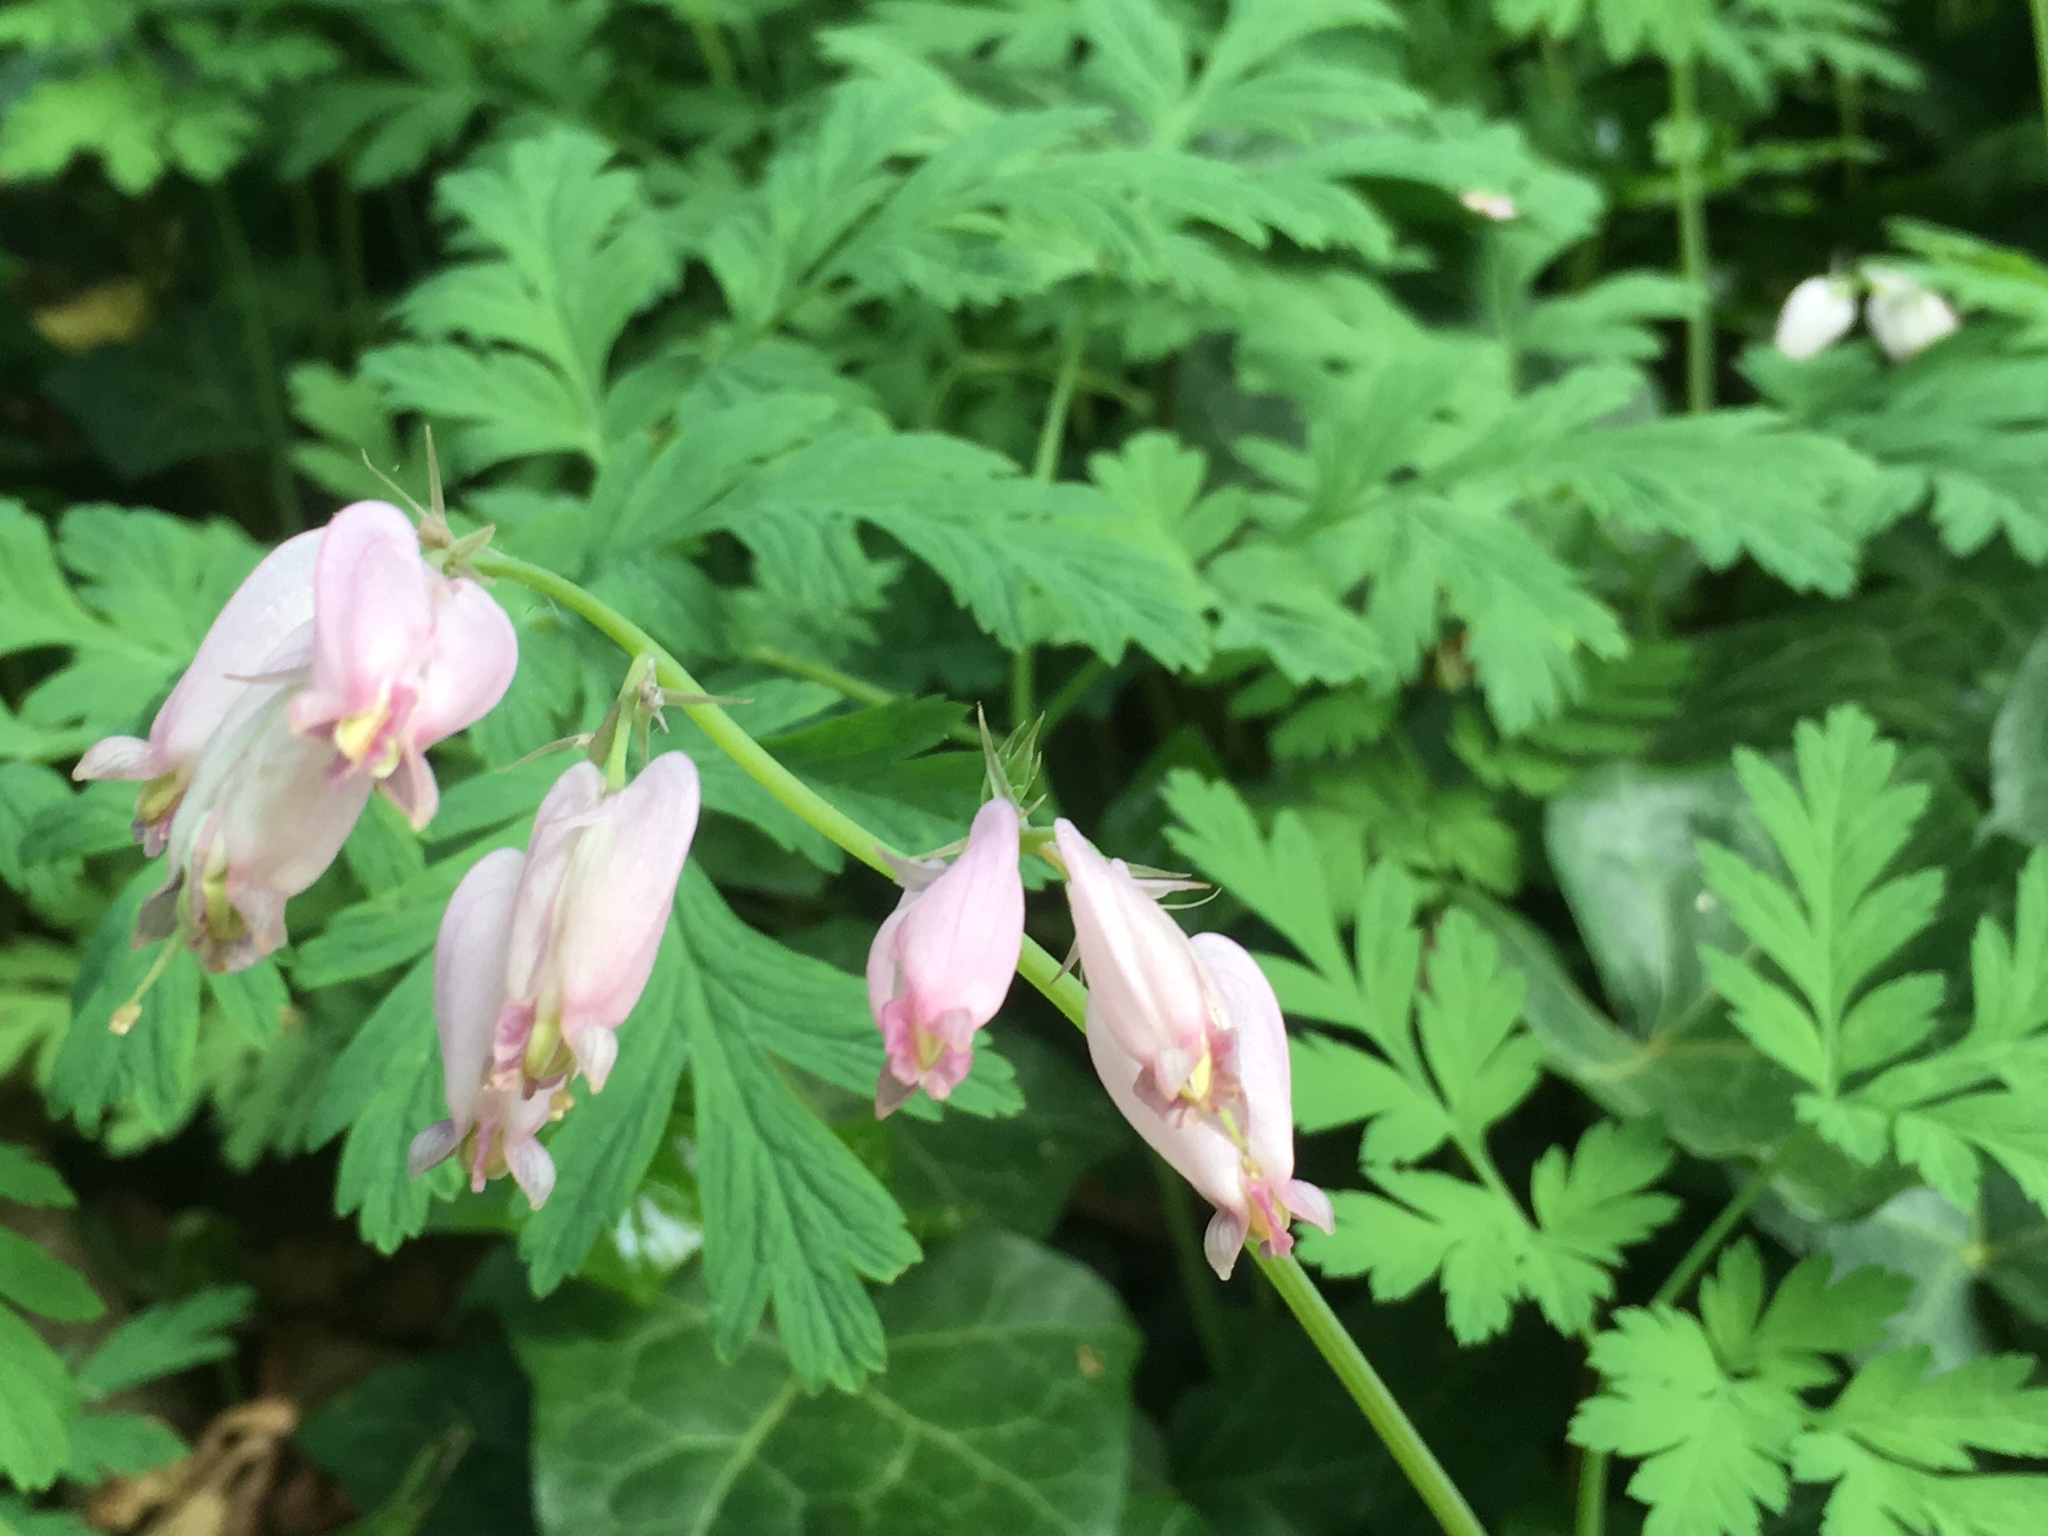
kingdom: Plantae
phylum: Tracheophyta
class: Magnoliopsida
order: Ranunculales
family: Papaveraceae
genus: Dicentra
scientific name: Dicentra formosa
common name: Bleeding-heart
